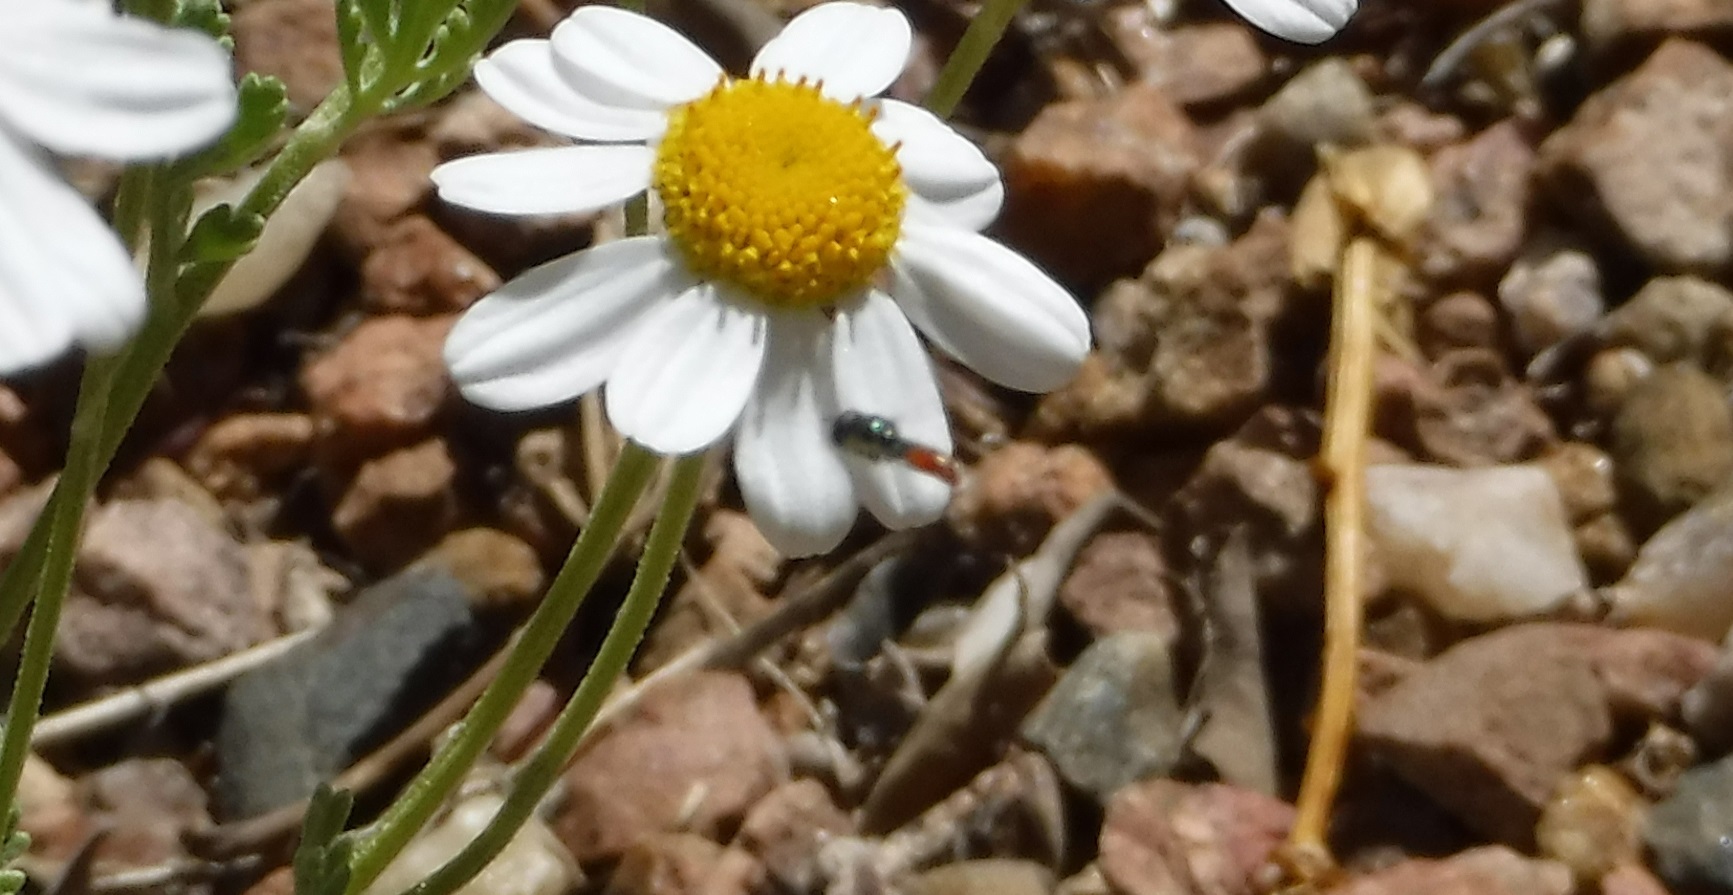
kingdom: Animalia
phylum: Arthropoda
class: Insecta
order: Diptera
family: Syrphidae
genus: Paragus
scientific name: Paragus haemorrhous
